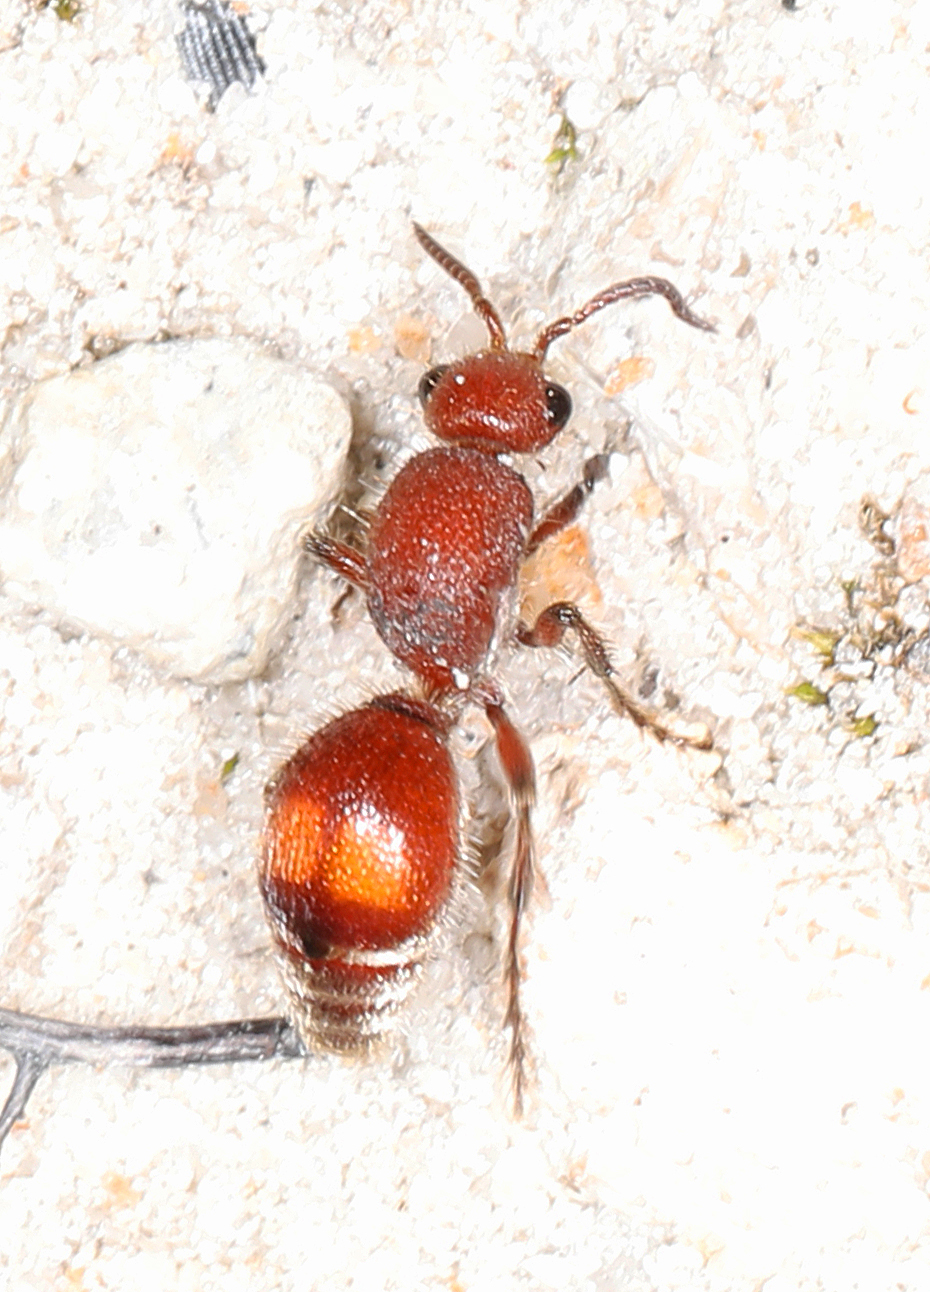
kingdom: Animalia
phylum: Arthropoda
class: Insecta
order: Hymenoptera
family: Mutillidae
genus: Dasymutilla
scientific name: Dasymutilla
